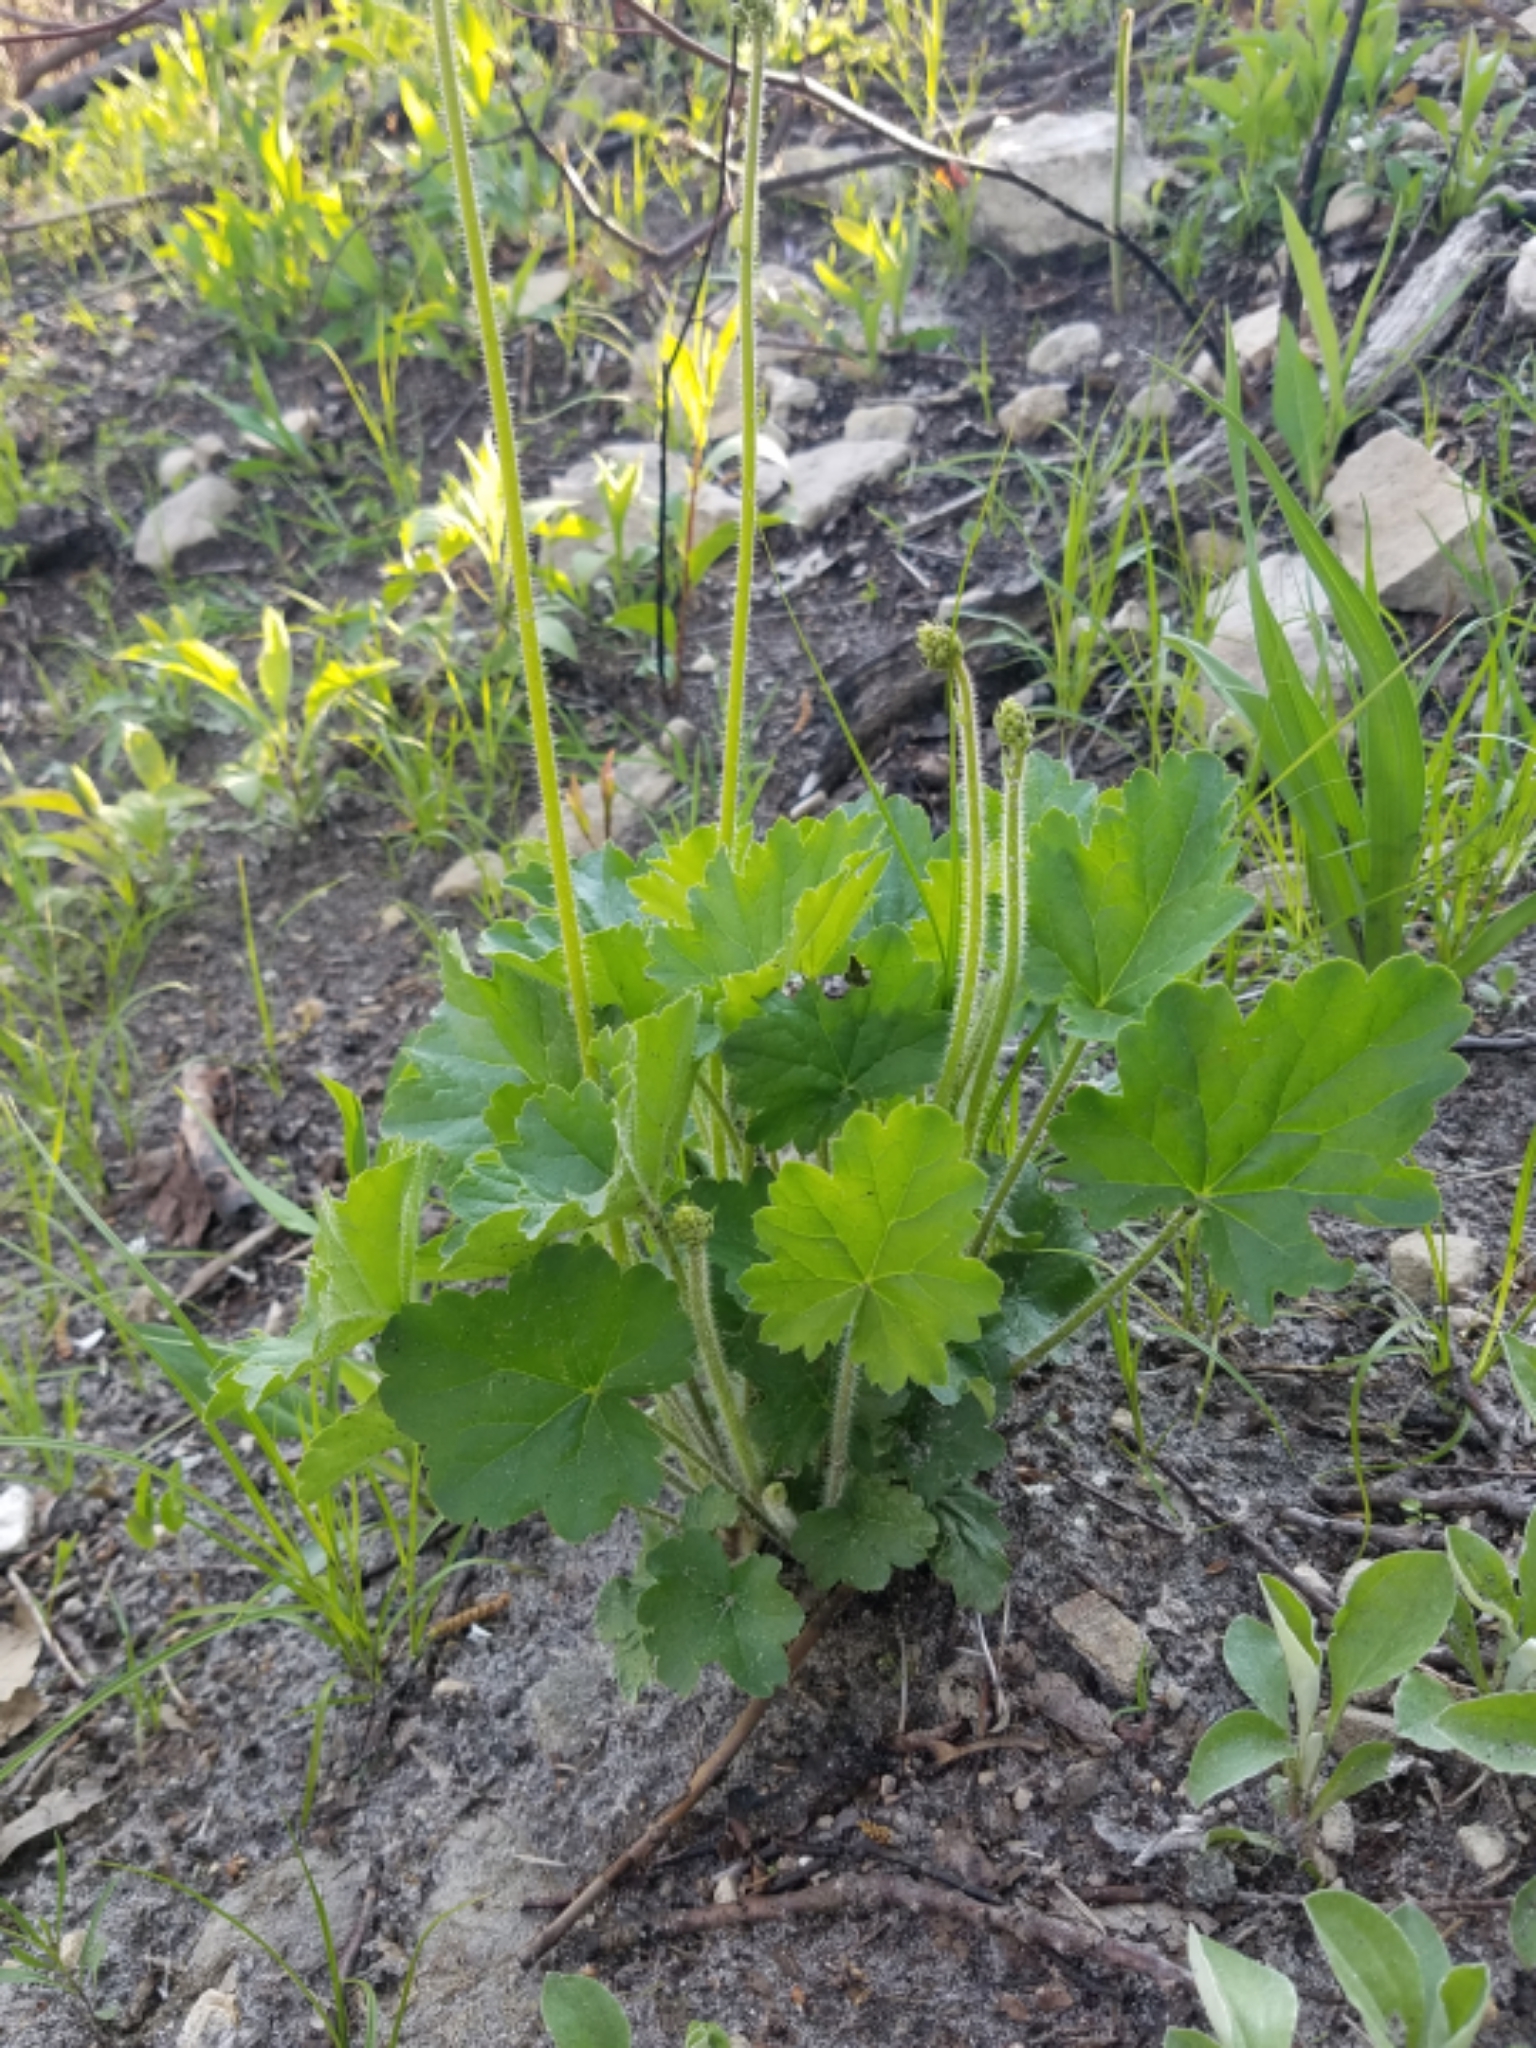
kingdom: Plantae
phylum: Tracheophyta
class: Magnoliopsida
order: Saxifragales
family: Saxifragaceae
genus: Heuchera
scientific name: Heuchera richardsonii
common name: Richardson's alumroot
